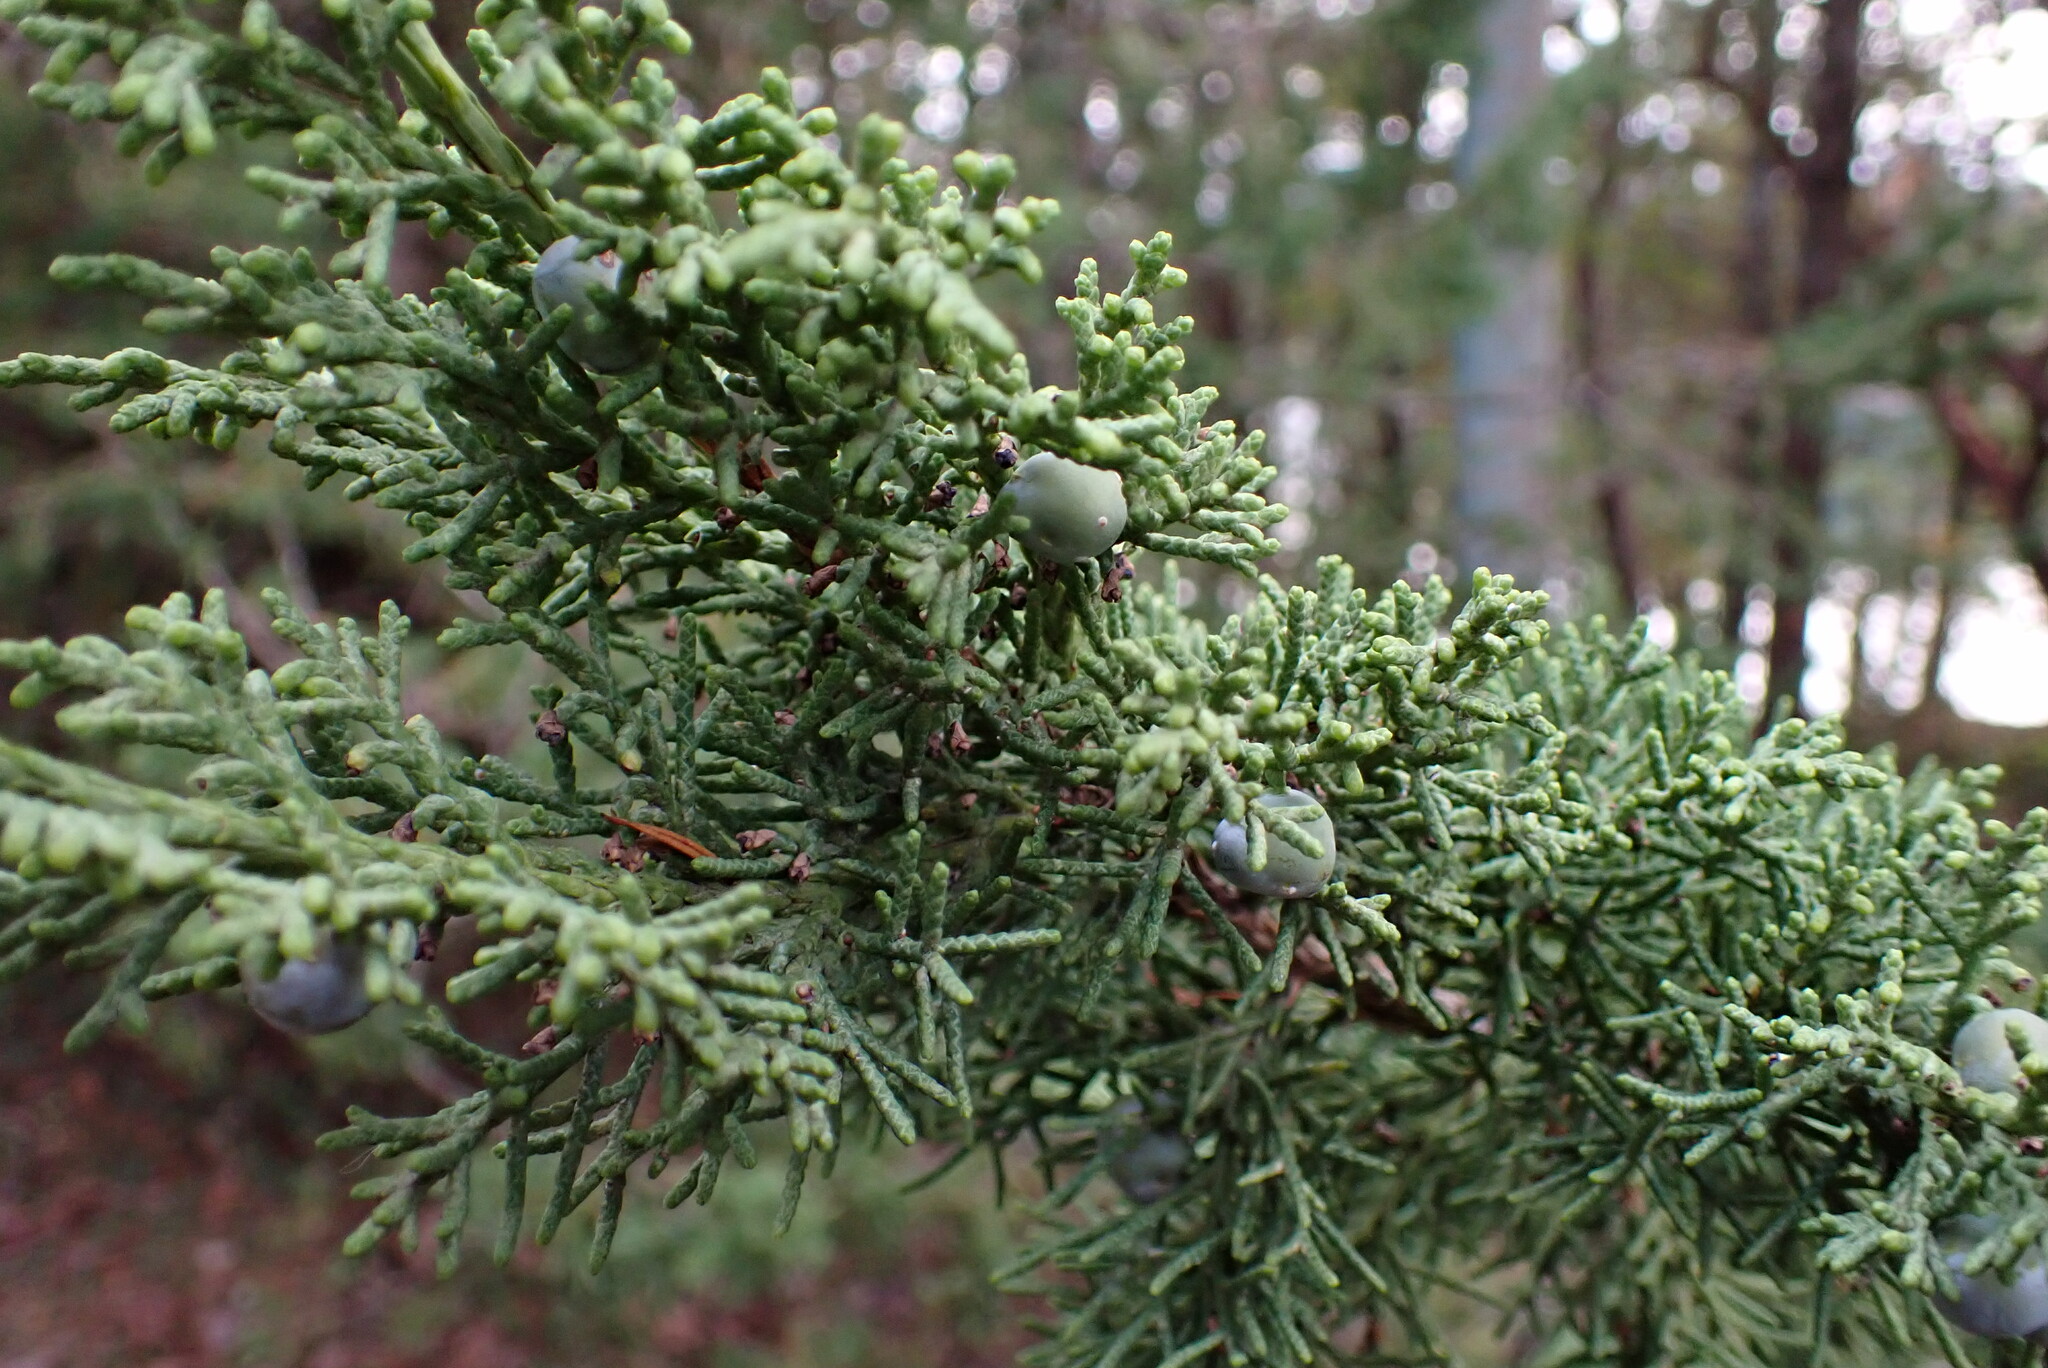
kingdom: Plantae
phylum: Tracheophyta
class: Pinopsida
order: Pinales
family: Cupressaceae
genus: Juniperus
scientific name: Juniperus scopulorum
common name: Rocky mountain juniper
